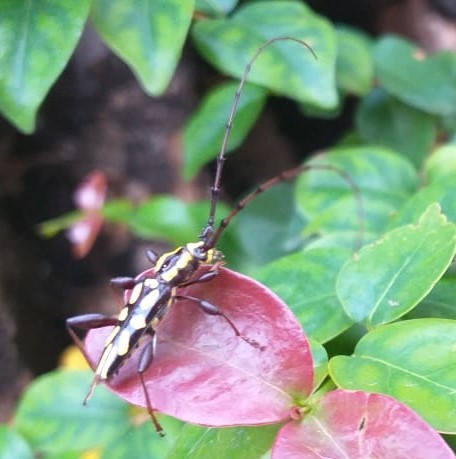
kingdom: Animalia
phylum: Arthropoda
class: Insecta
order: Coleoptera
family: Cerambycidae
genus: Ornithia
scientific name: Ornithia zapotensis
